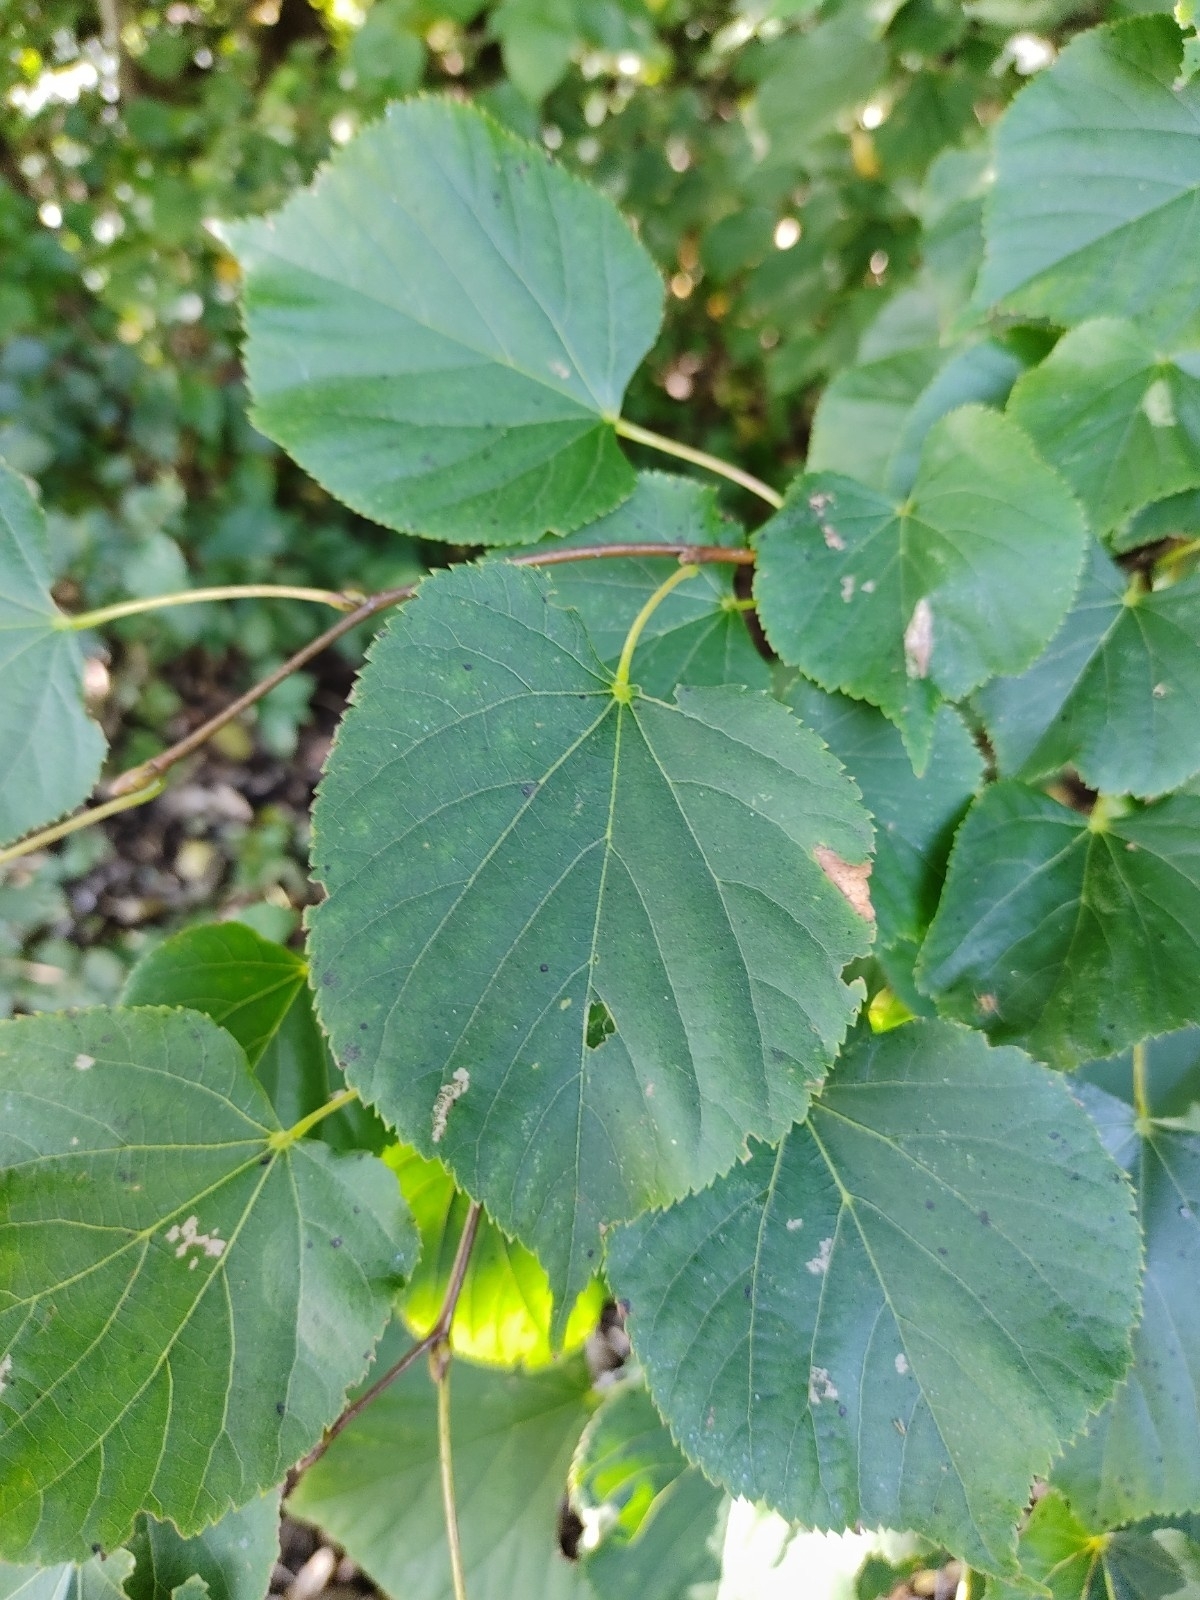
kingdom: Plantae
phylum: Tracheophyta
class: Magnoliopsida
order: Malvales
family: Malvaceae
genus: Tilia
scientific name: Tilia cordata
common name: Small-leaved lime
